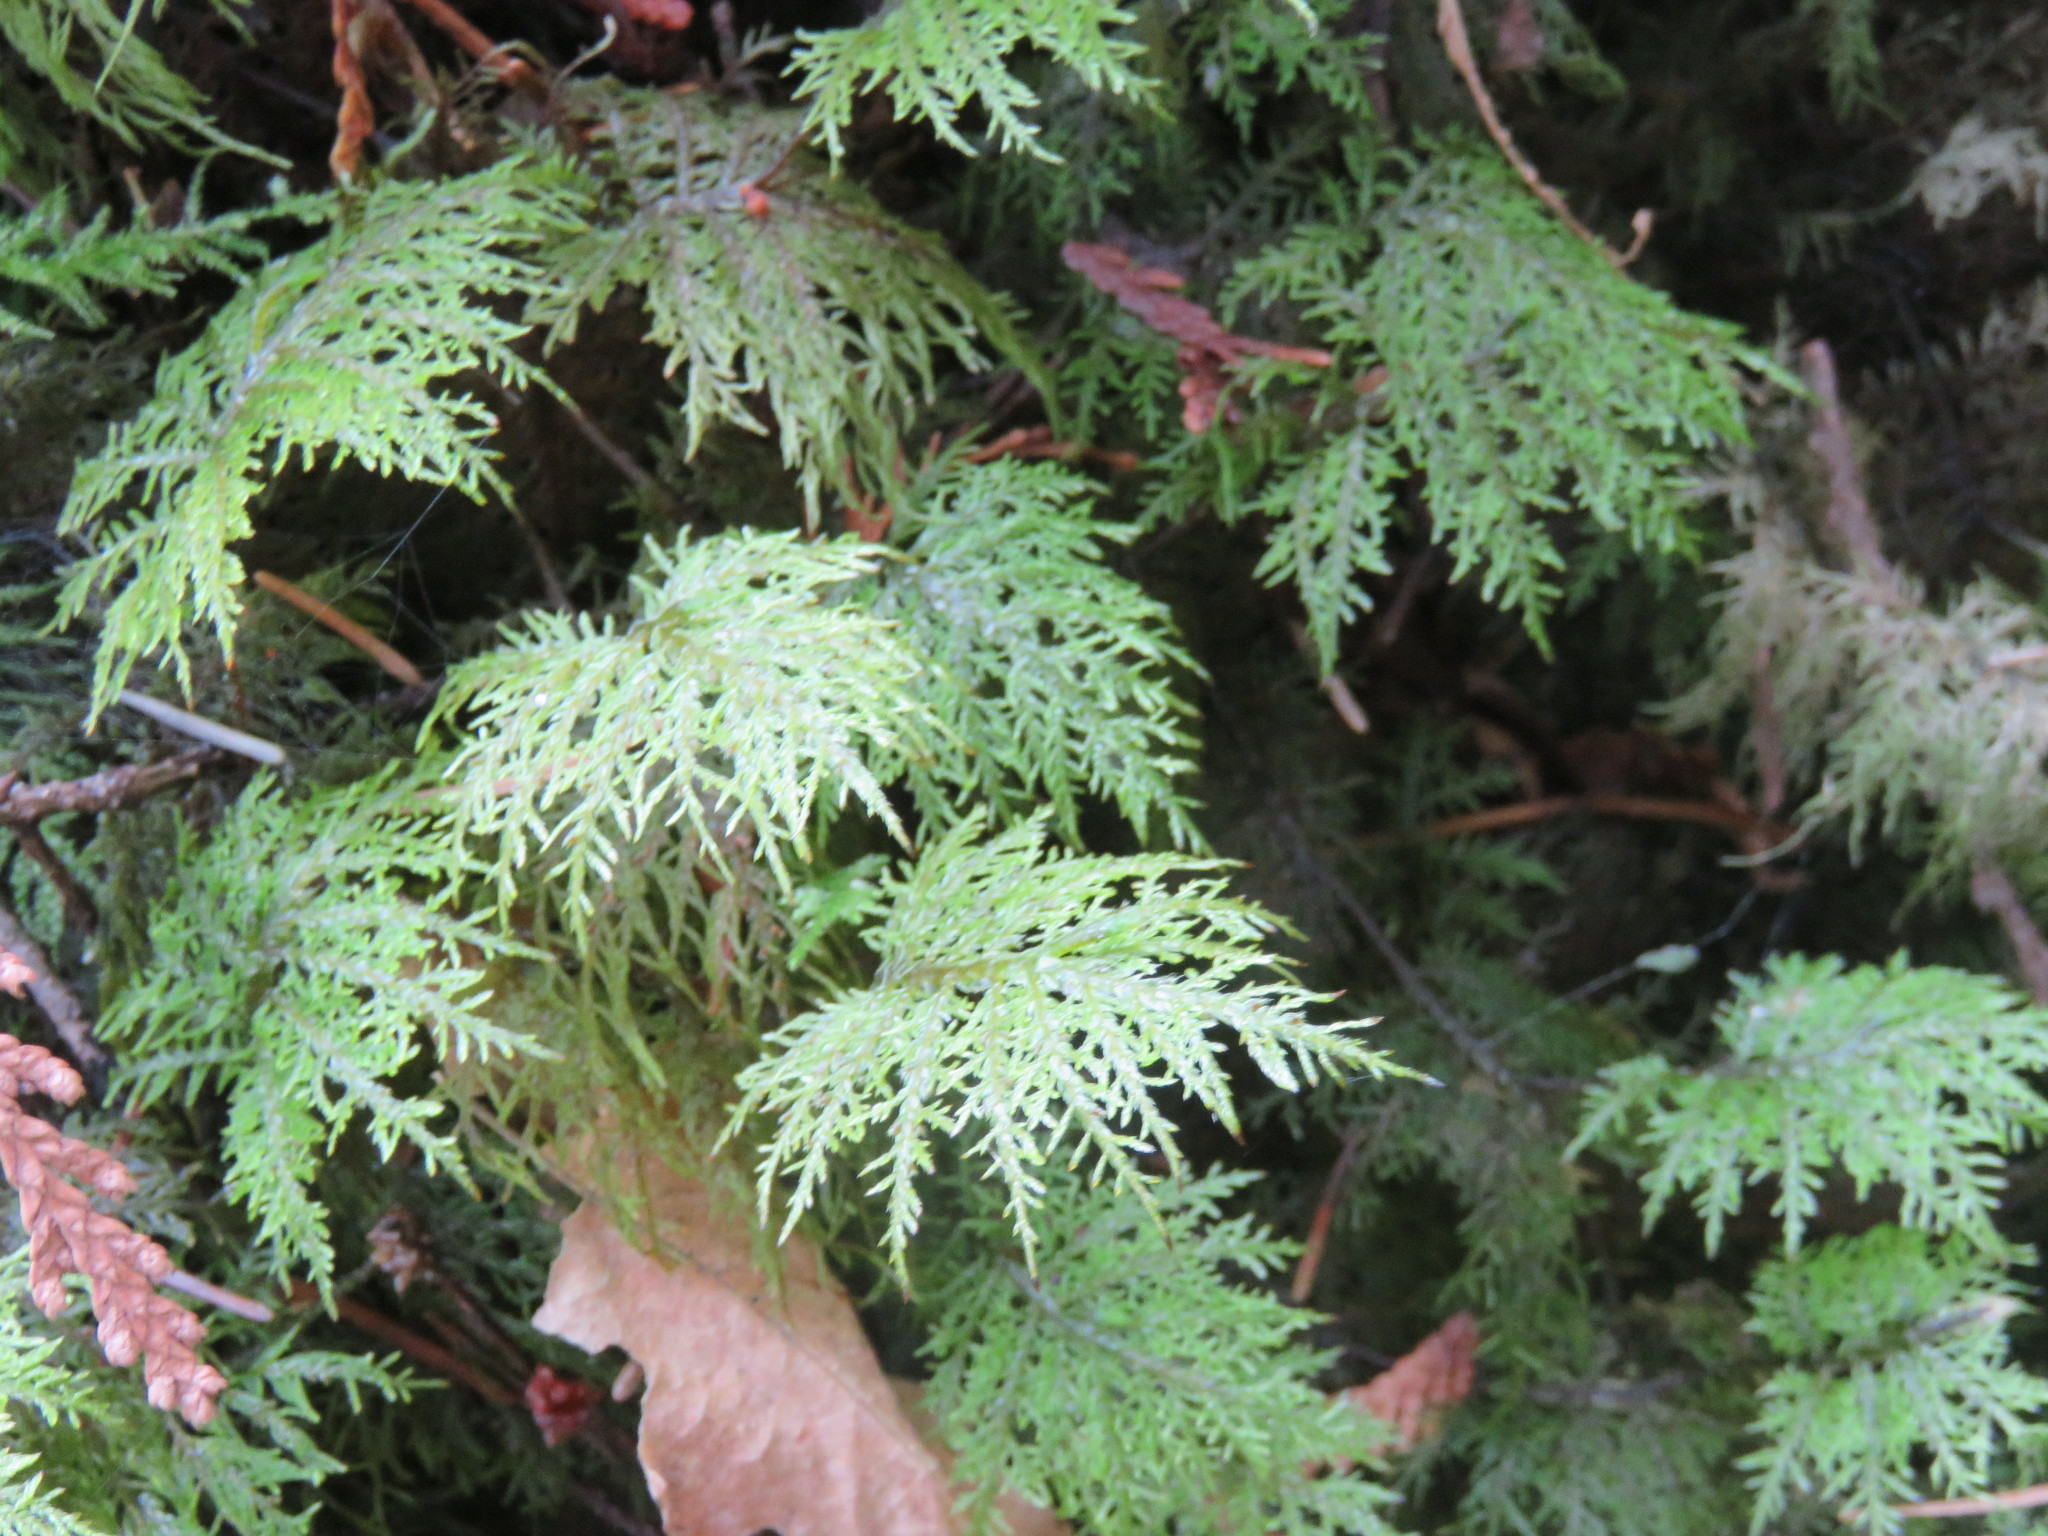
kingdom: Plantae
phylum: Bryophyta
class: Bryopsida
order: Hypnales
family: Hylocomiaceae
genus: Hylocomium
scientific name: Hylocomium splendens
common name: Stairstep moss
